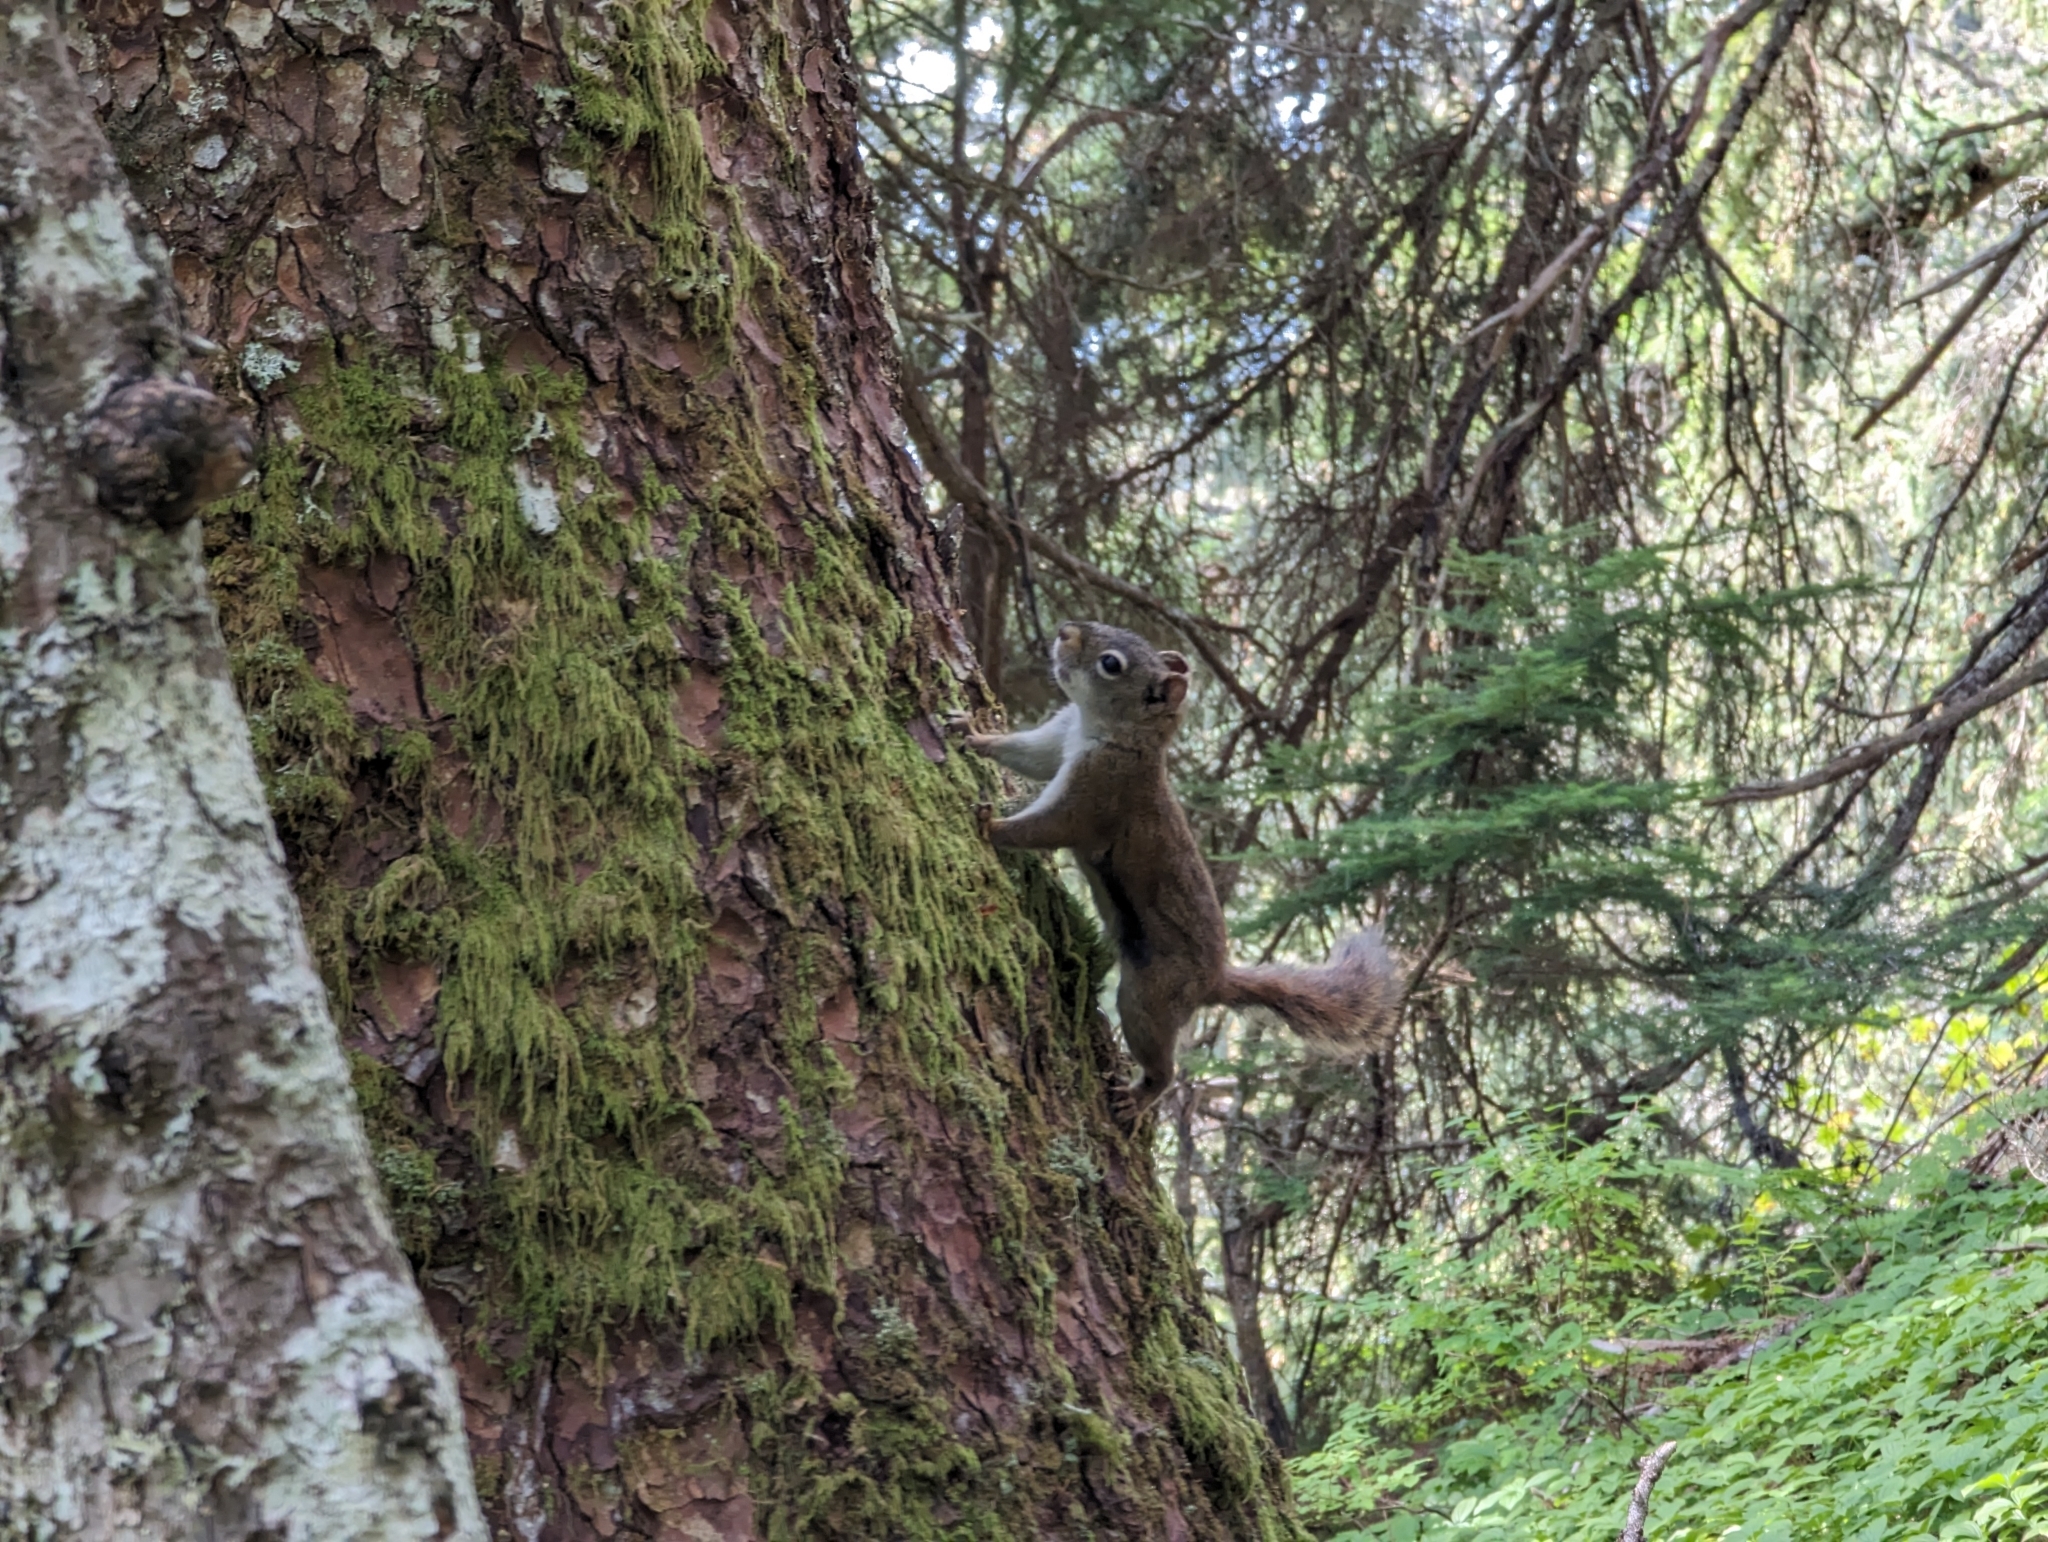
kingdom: Animalia
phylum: Chordata
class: Mammalia
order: Rodentia
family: Sciuridae
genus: Tamiasciurus
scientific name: Tamiasciurus hudsonicus
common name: Red squirrel
